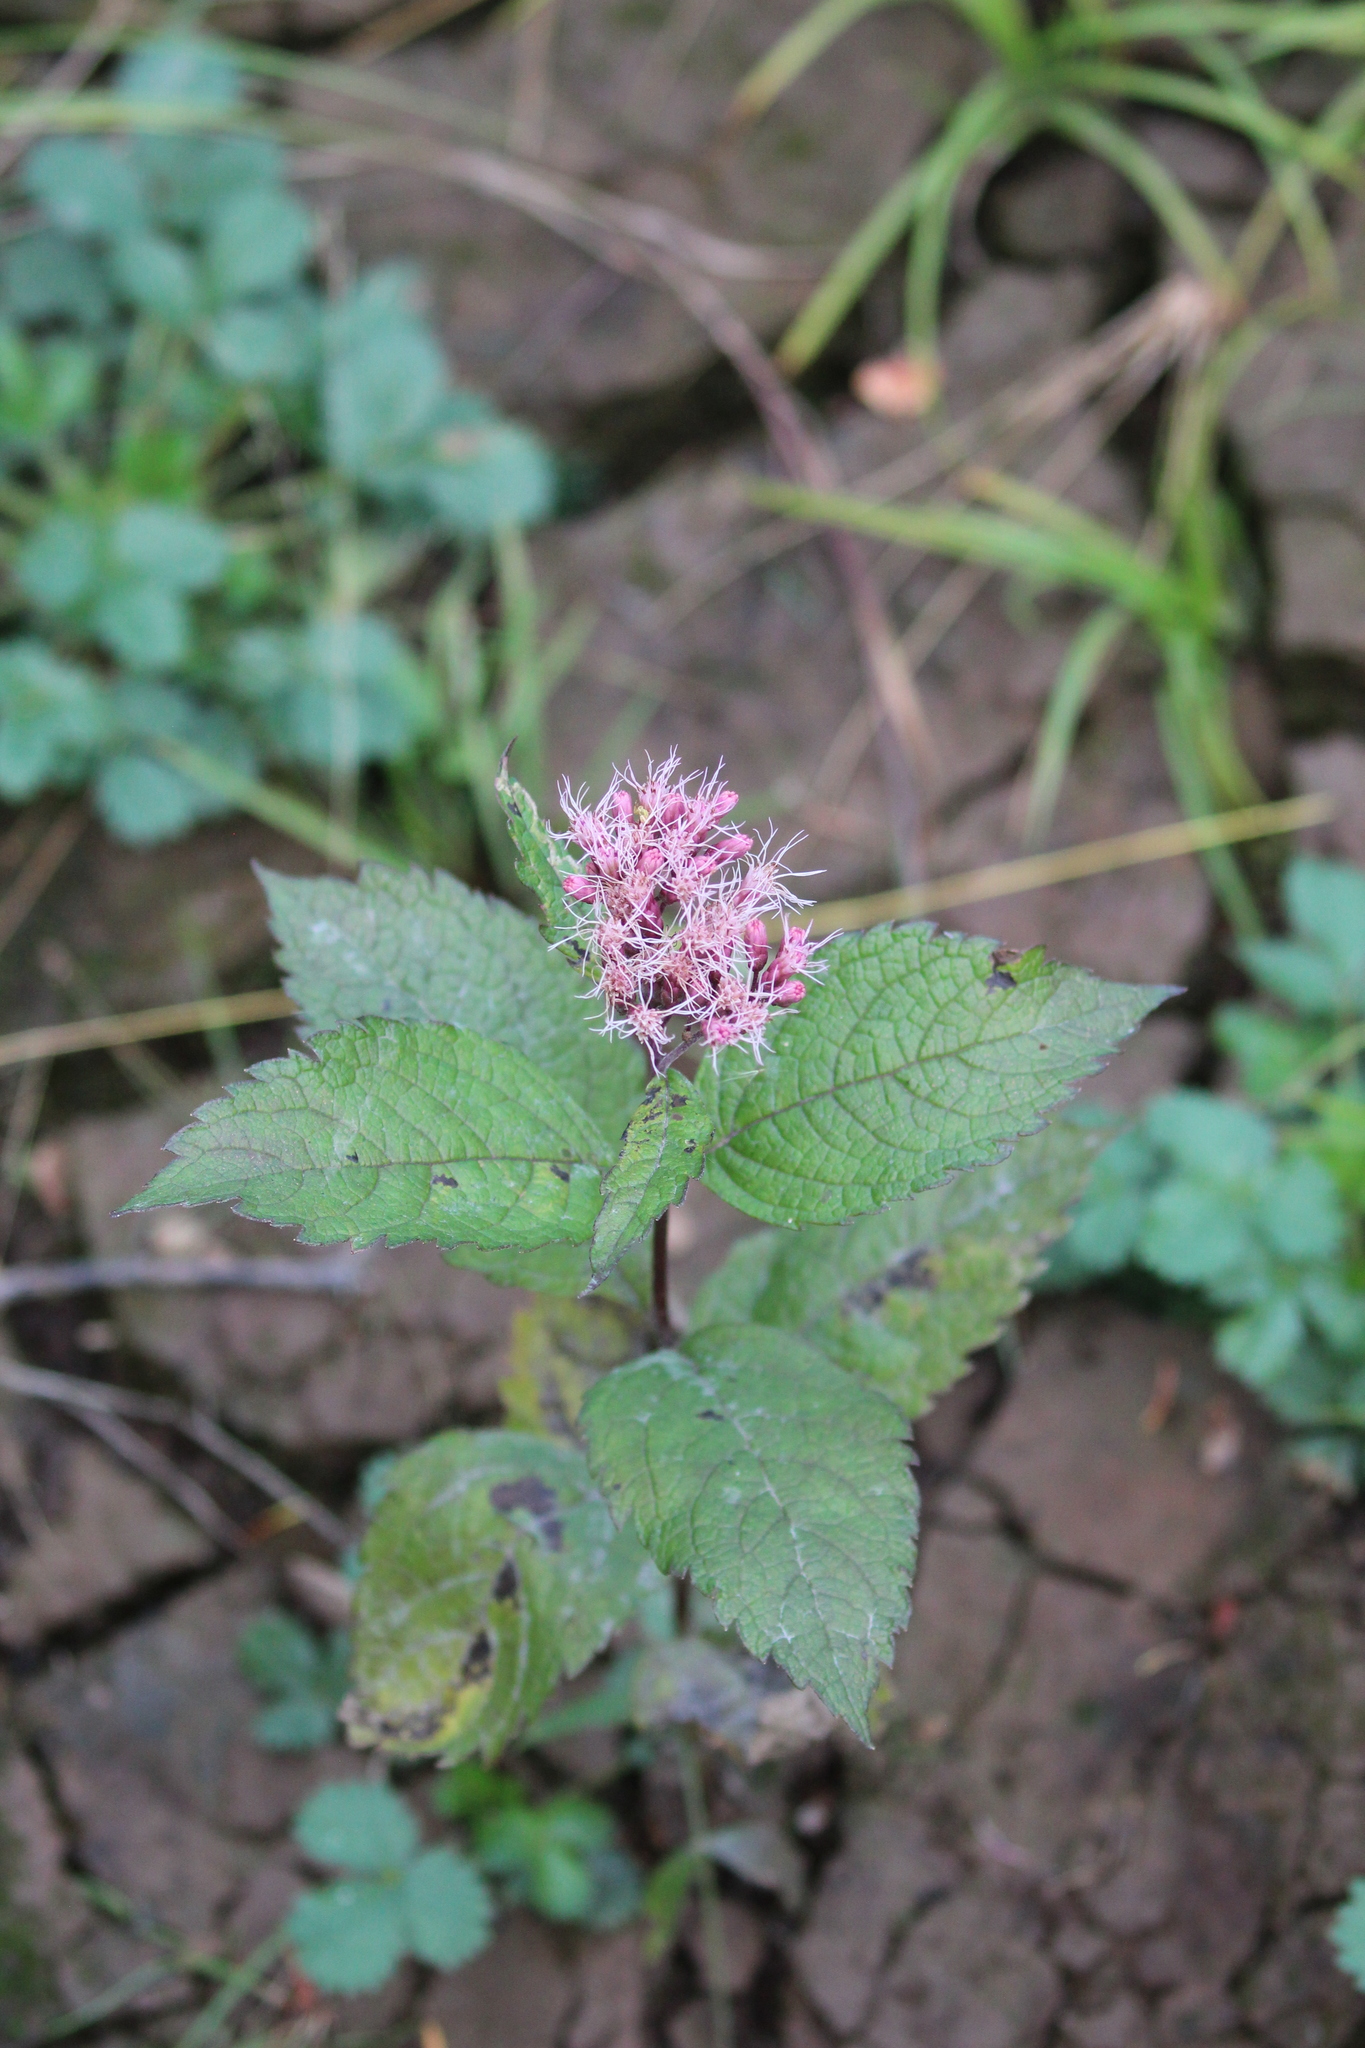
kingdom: Plantae
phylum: Tracheophyta
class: Magnoliopsida
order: Asterales
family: Asteraceae
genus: Eutrochium
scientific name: Eutrochium maculatum
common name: Spotted joe pye weed
